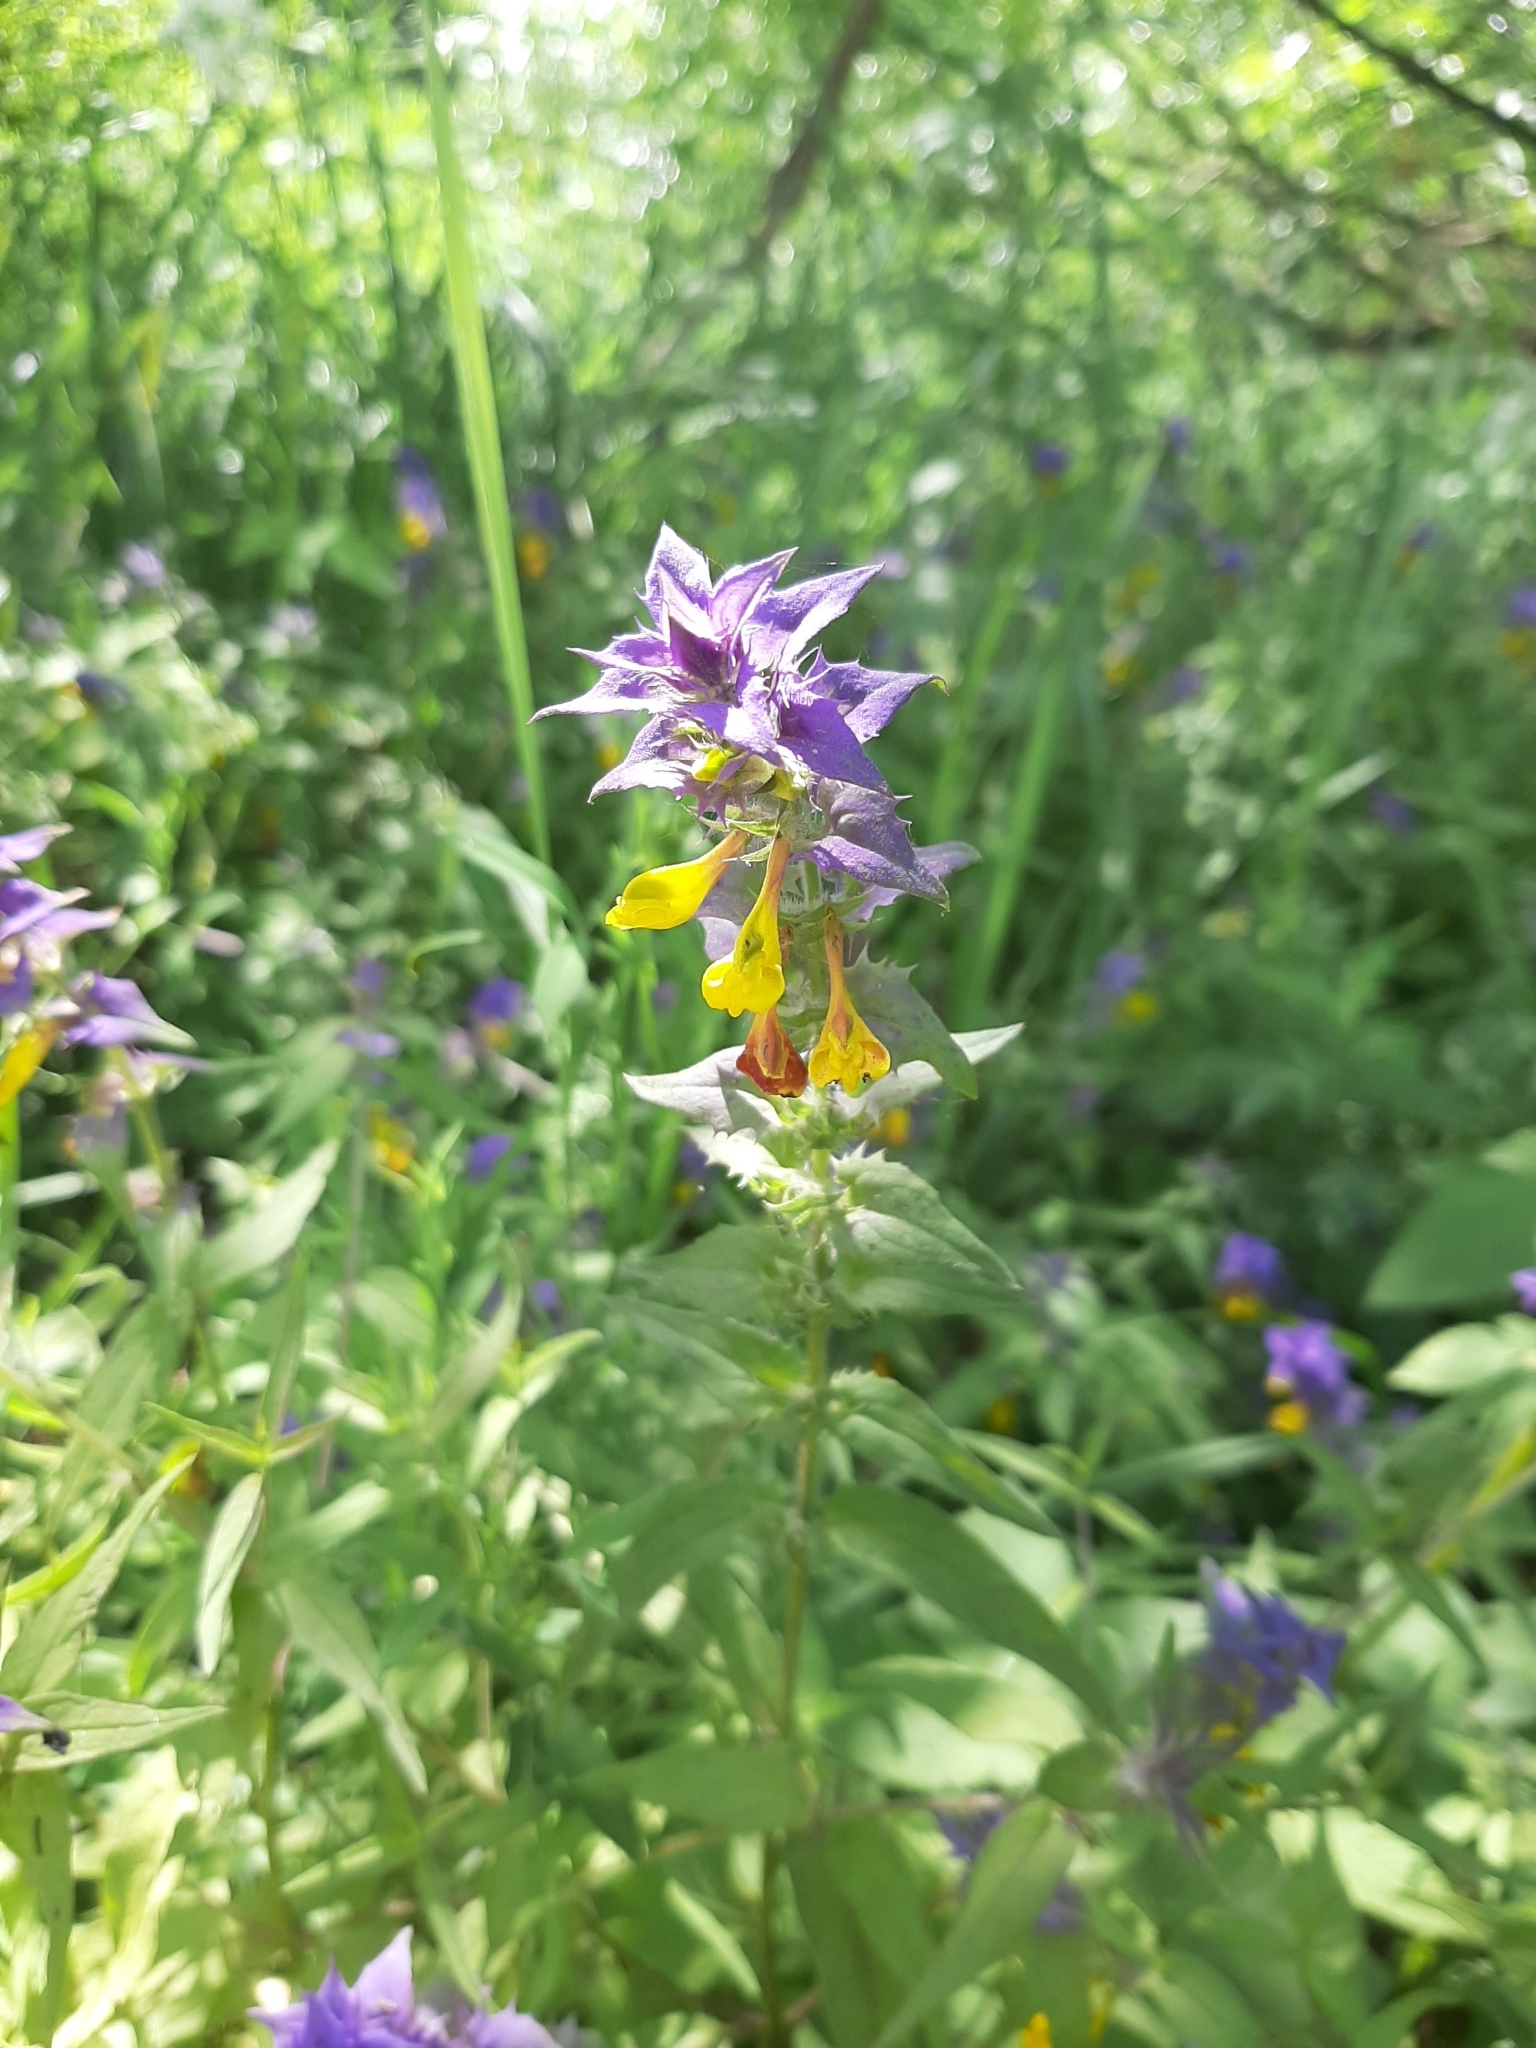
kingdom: Plantae
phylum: Tracheophyta
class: Magnoliopsida
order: Lamiales
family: Orobanchaceae
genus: Melampyrum
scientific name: Melampyrum nemorosum
